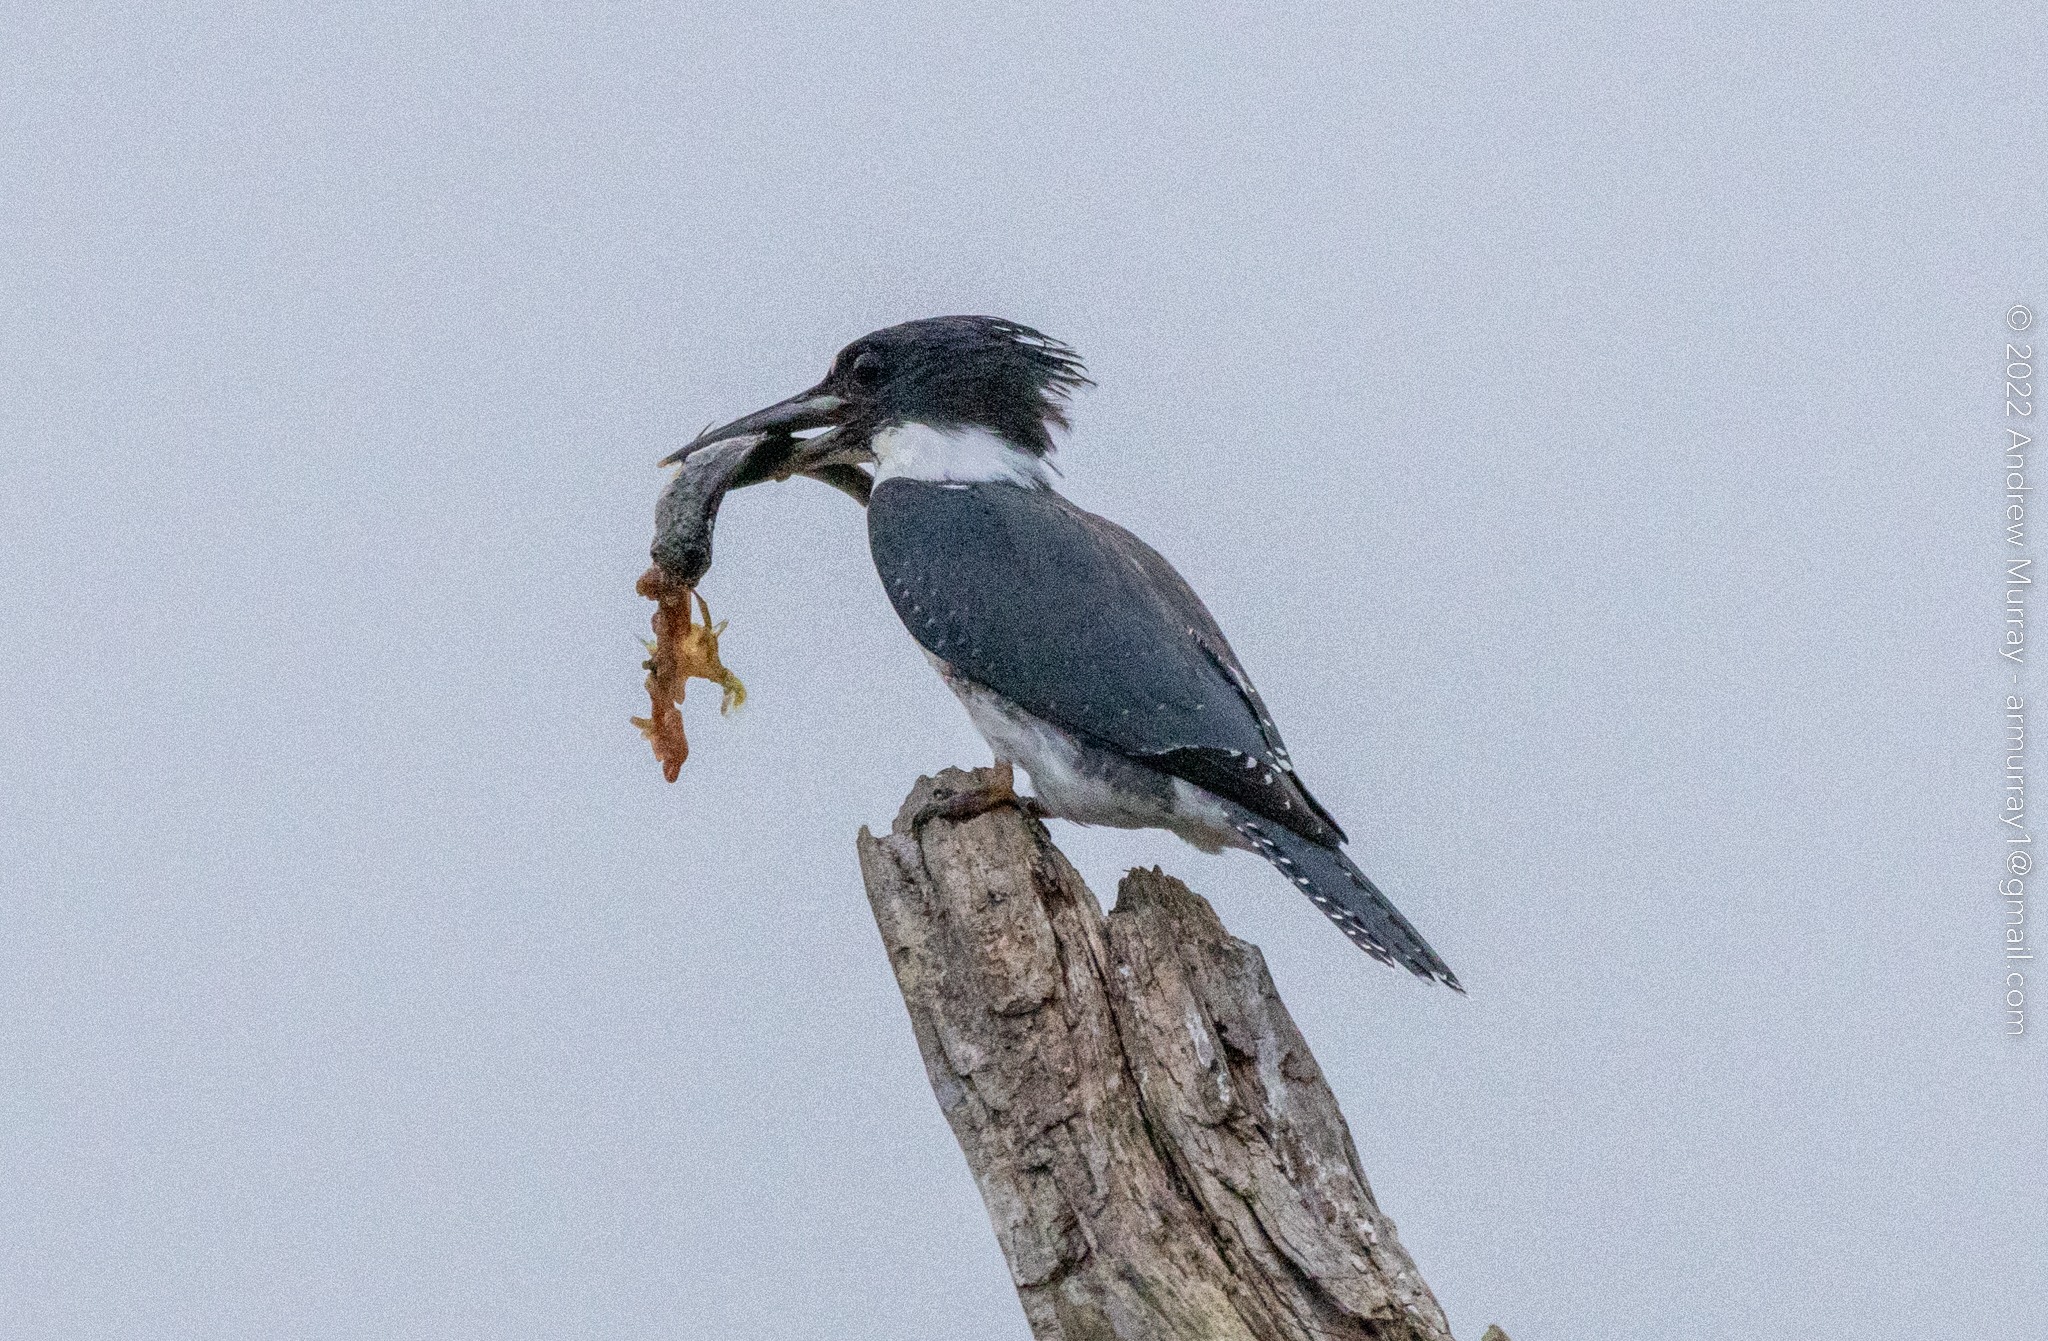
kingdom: Animalia
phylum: Chordata
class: Aves
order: Coraciiformes
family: Alcedinidae
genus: Megaceryle
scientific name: Megaceryle alcyon
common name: Belted kingfisher
